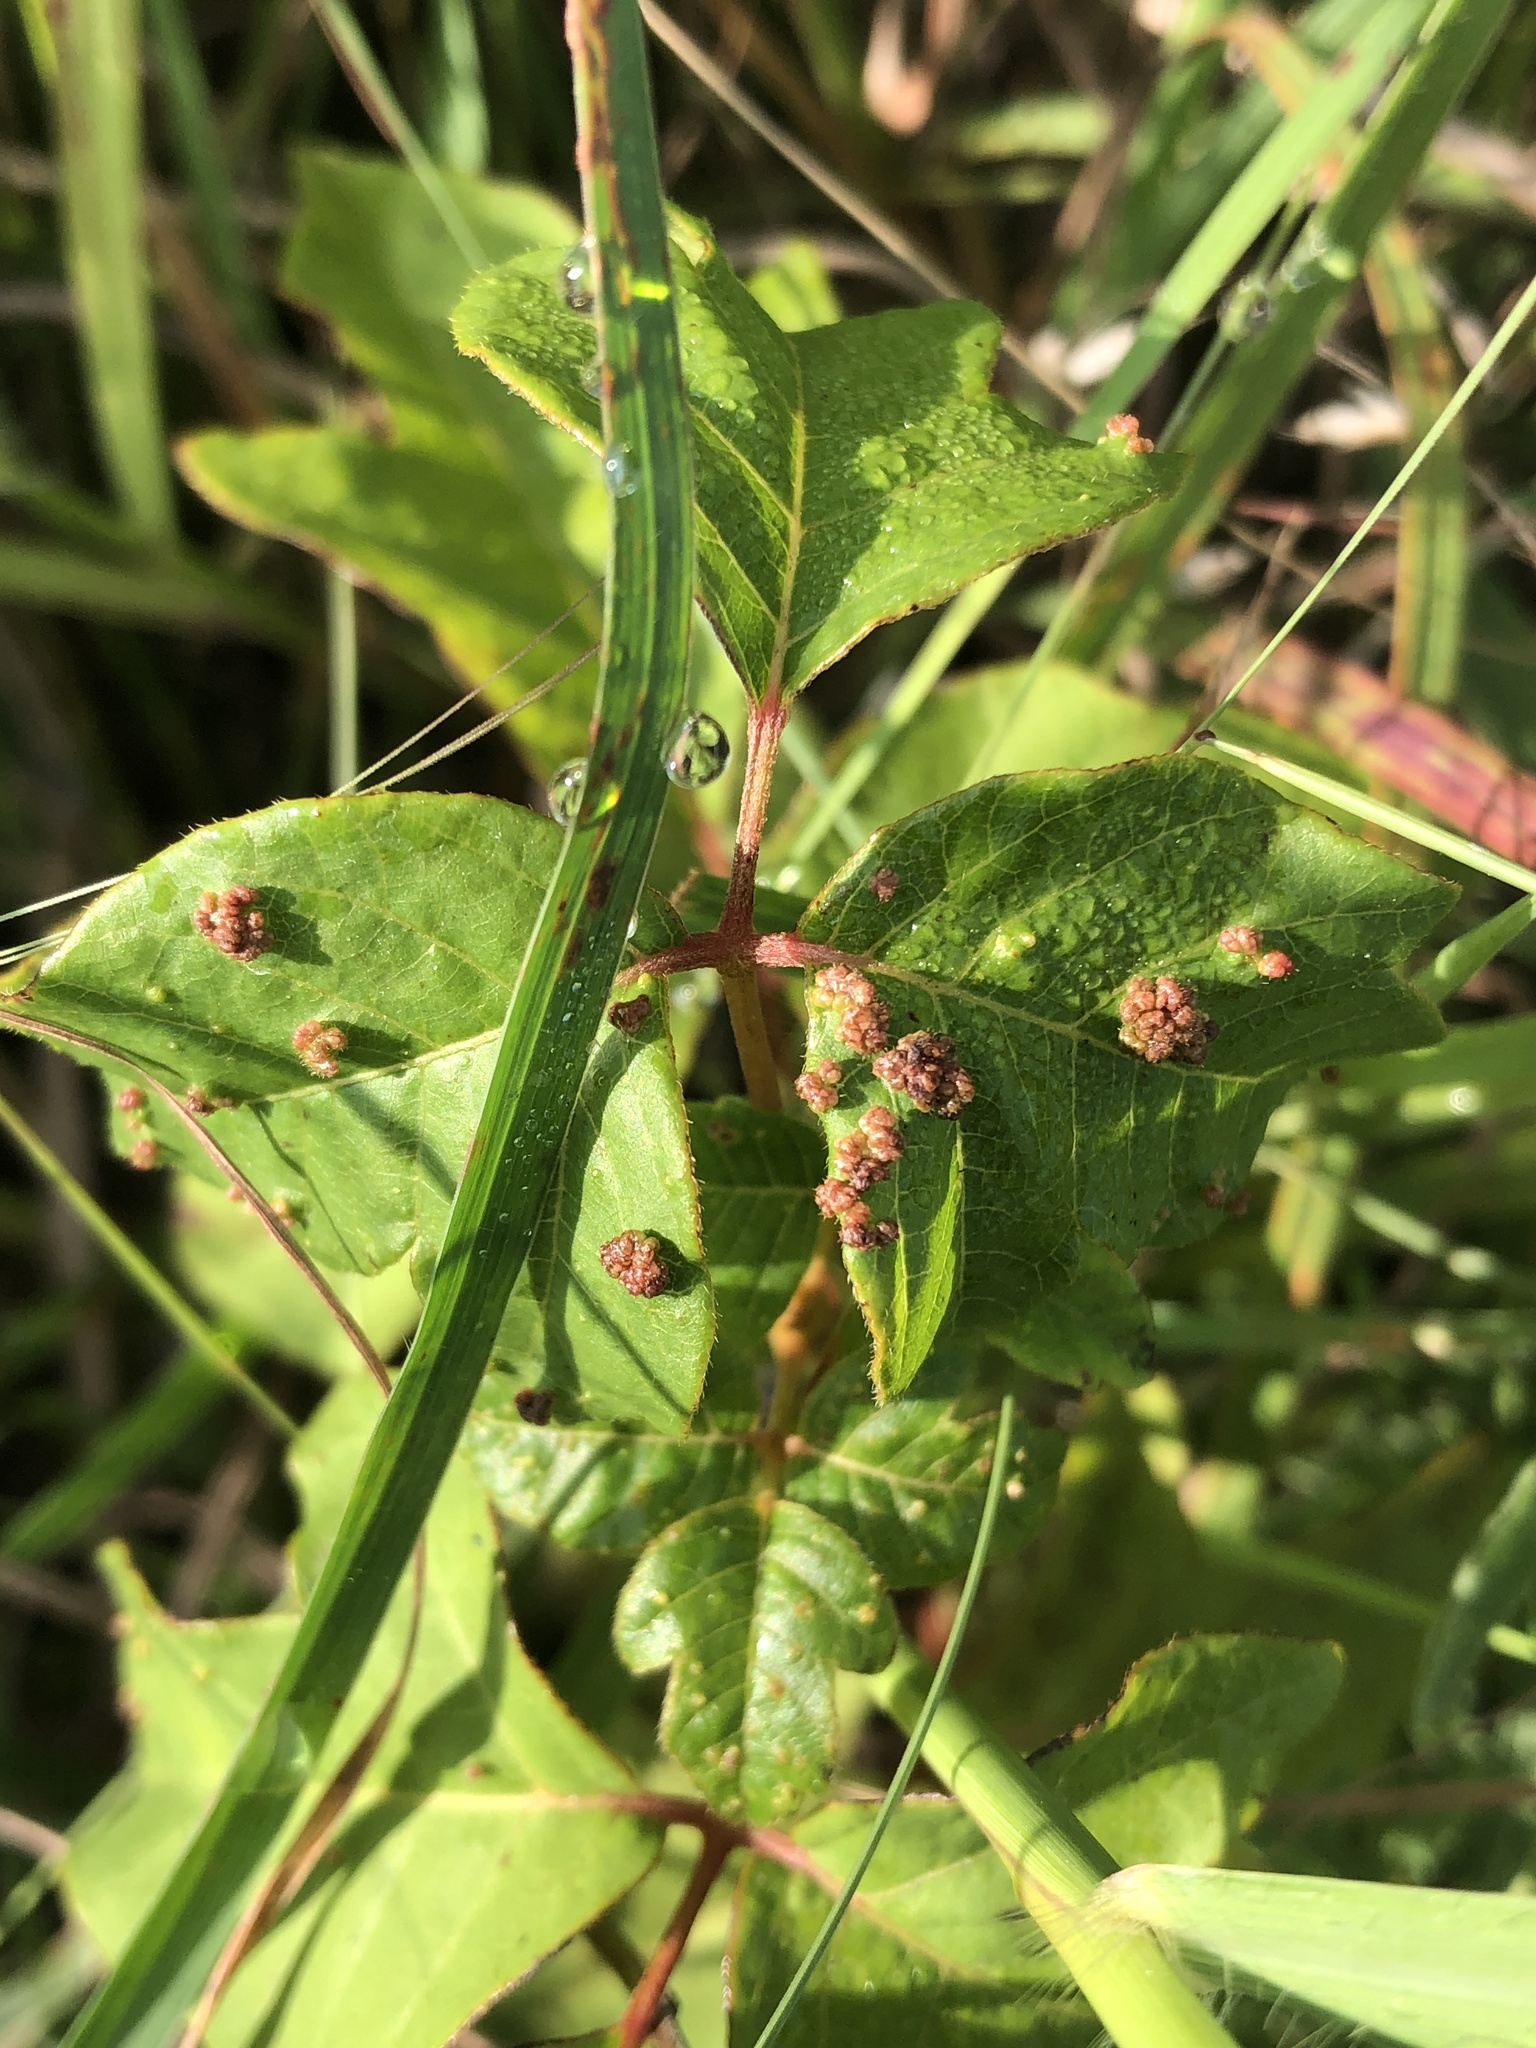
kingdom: Animalia
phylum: Arthropoda
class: Arachnida
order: Trombidiformes
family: Eriophyidae
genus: Aculops
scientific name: Aculops
